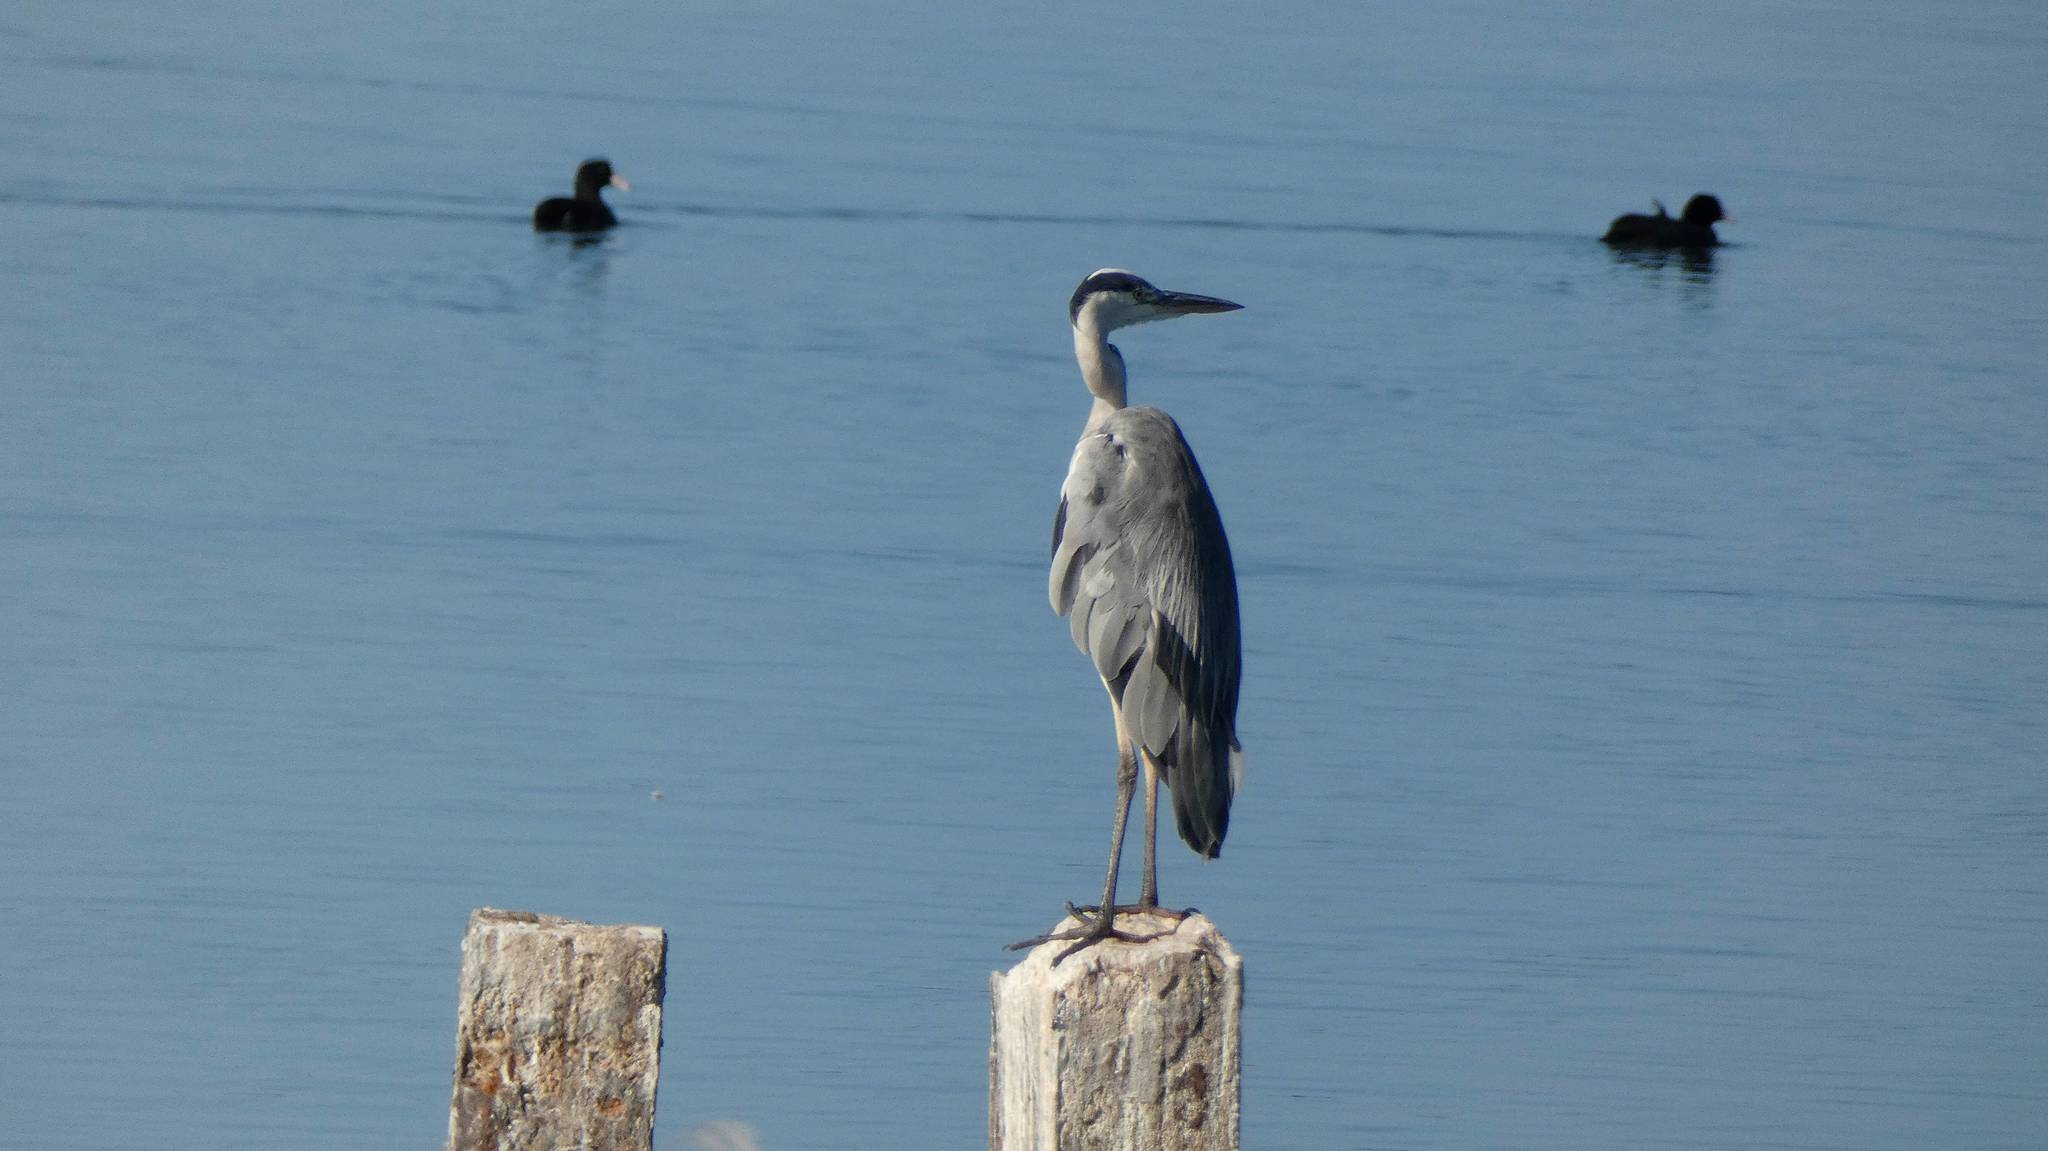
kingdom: Animalia
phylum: Chordata
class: Aves
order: Pelecaniformes
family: Ardeidae
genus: Ardea
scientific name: Ardea cinerea
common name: Grey heron
